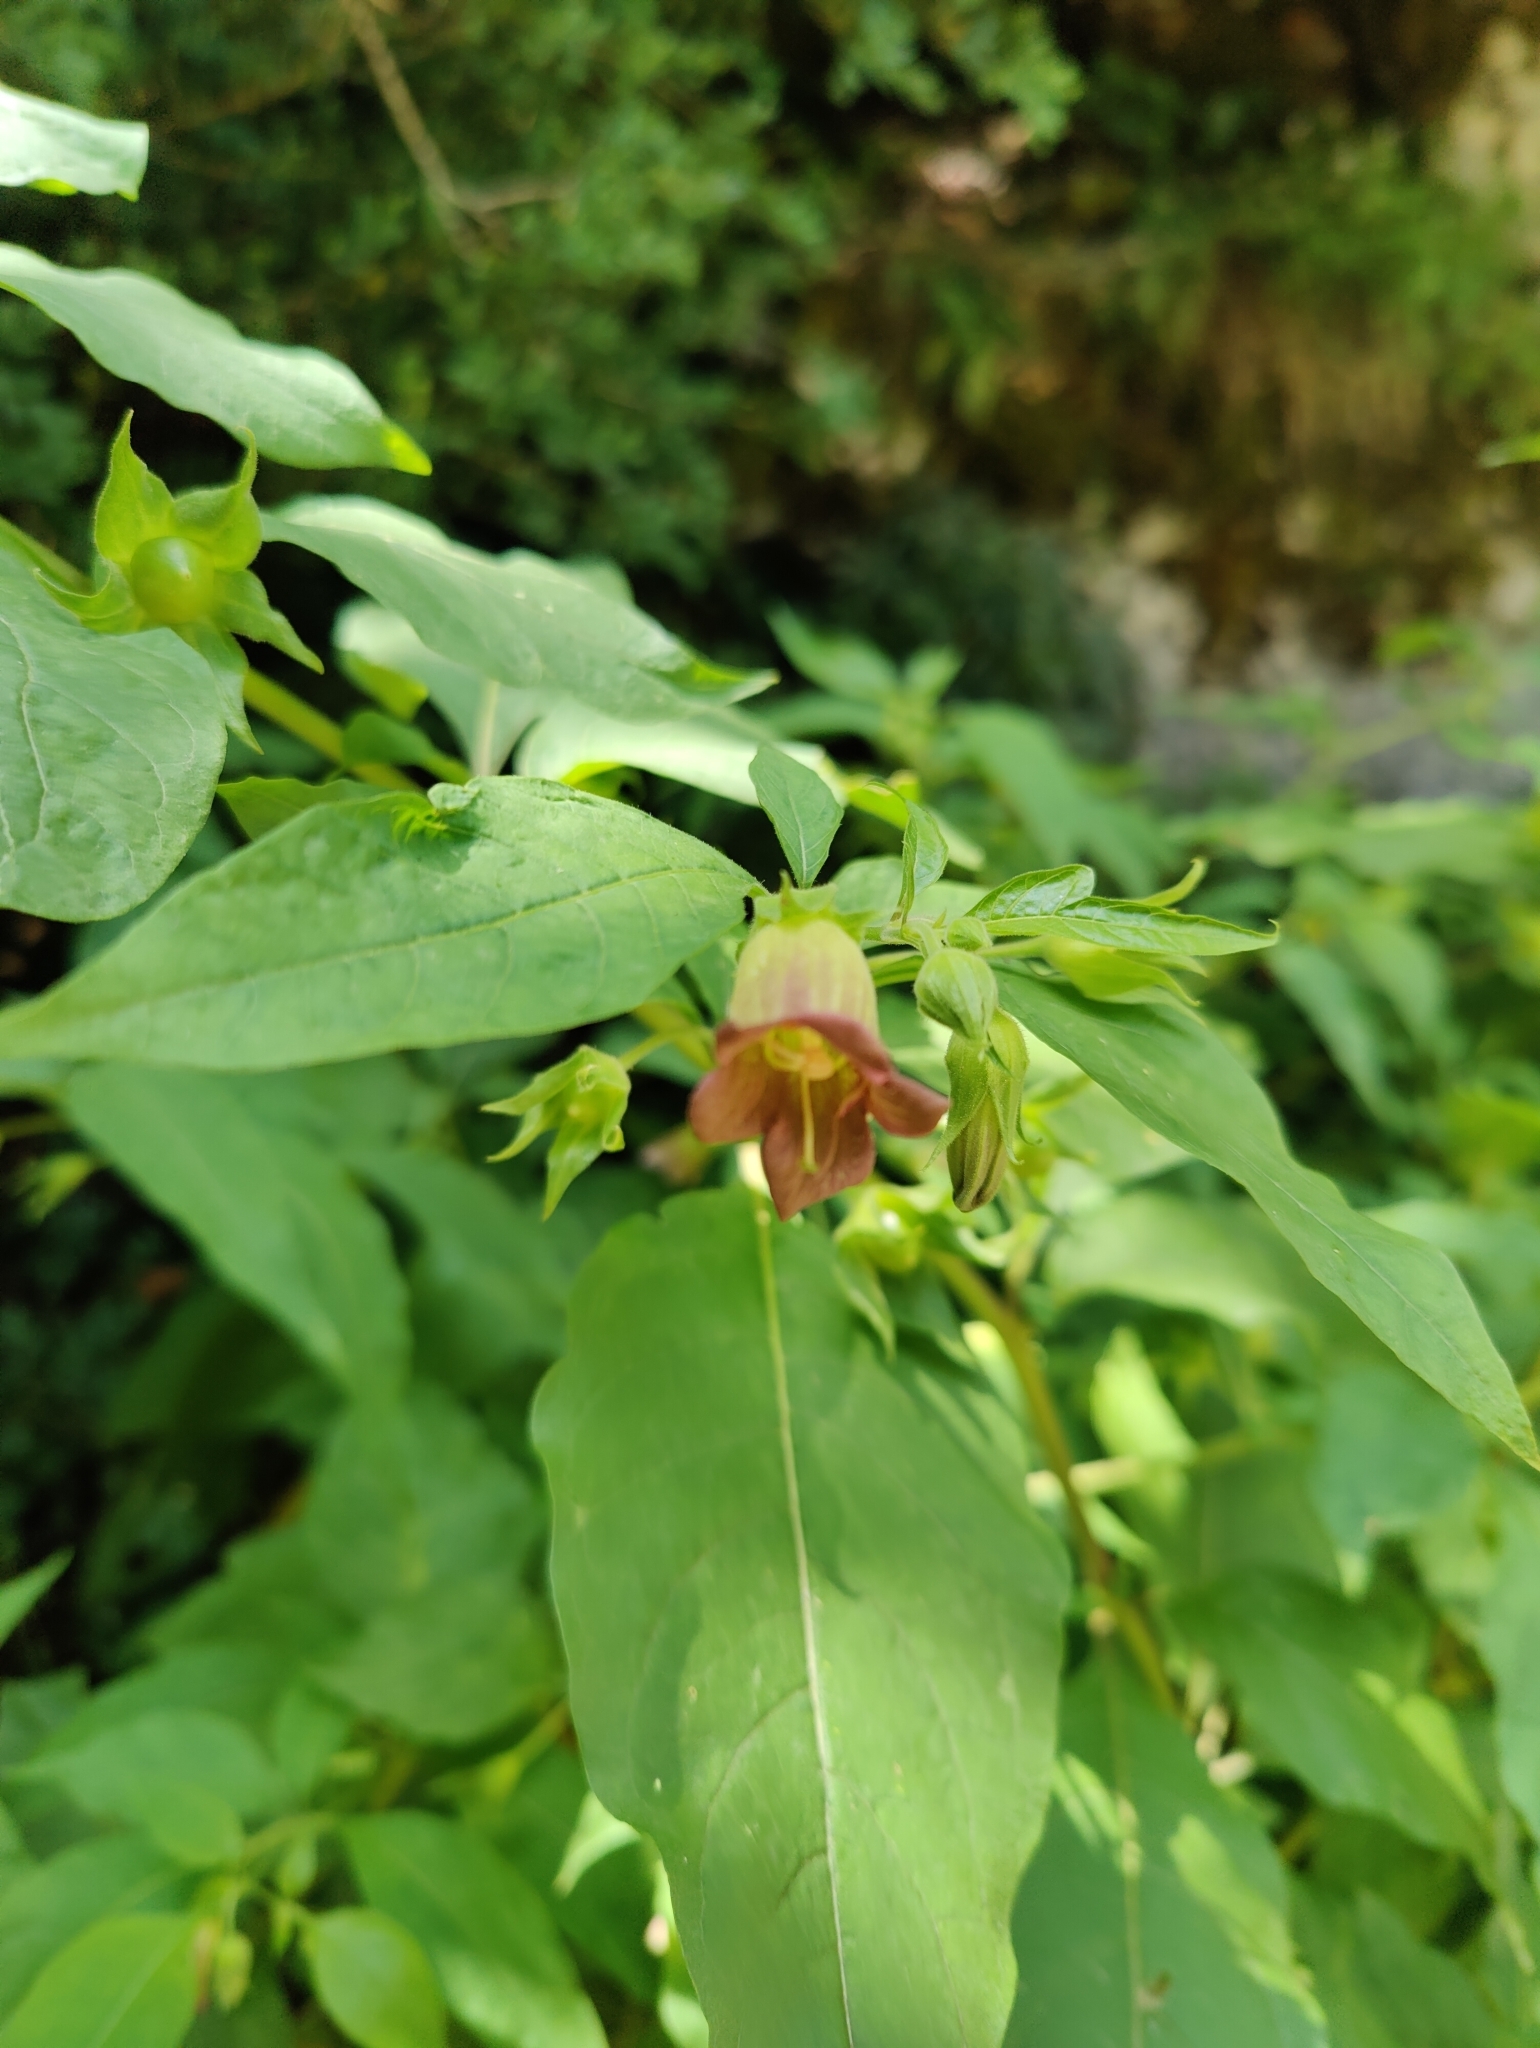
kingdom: Plantae
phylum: Tracheophyta
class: Magnoliopsida
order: Solanales
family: Solanaceae
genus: Atropa
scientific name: Atropa belladonna
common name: Deadly nightshade
